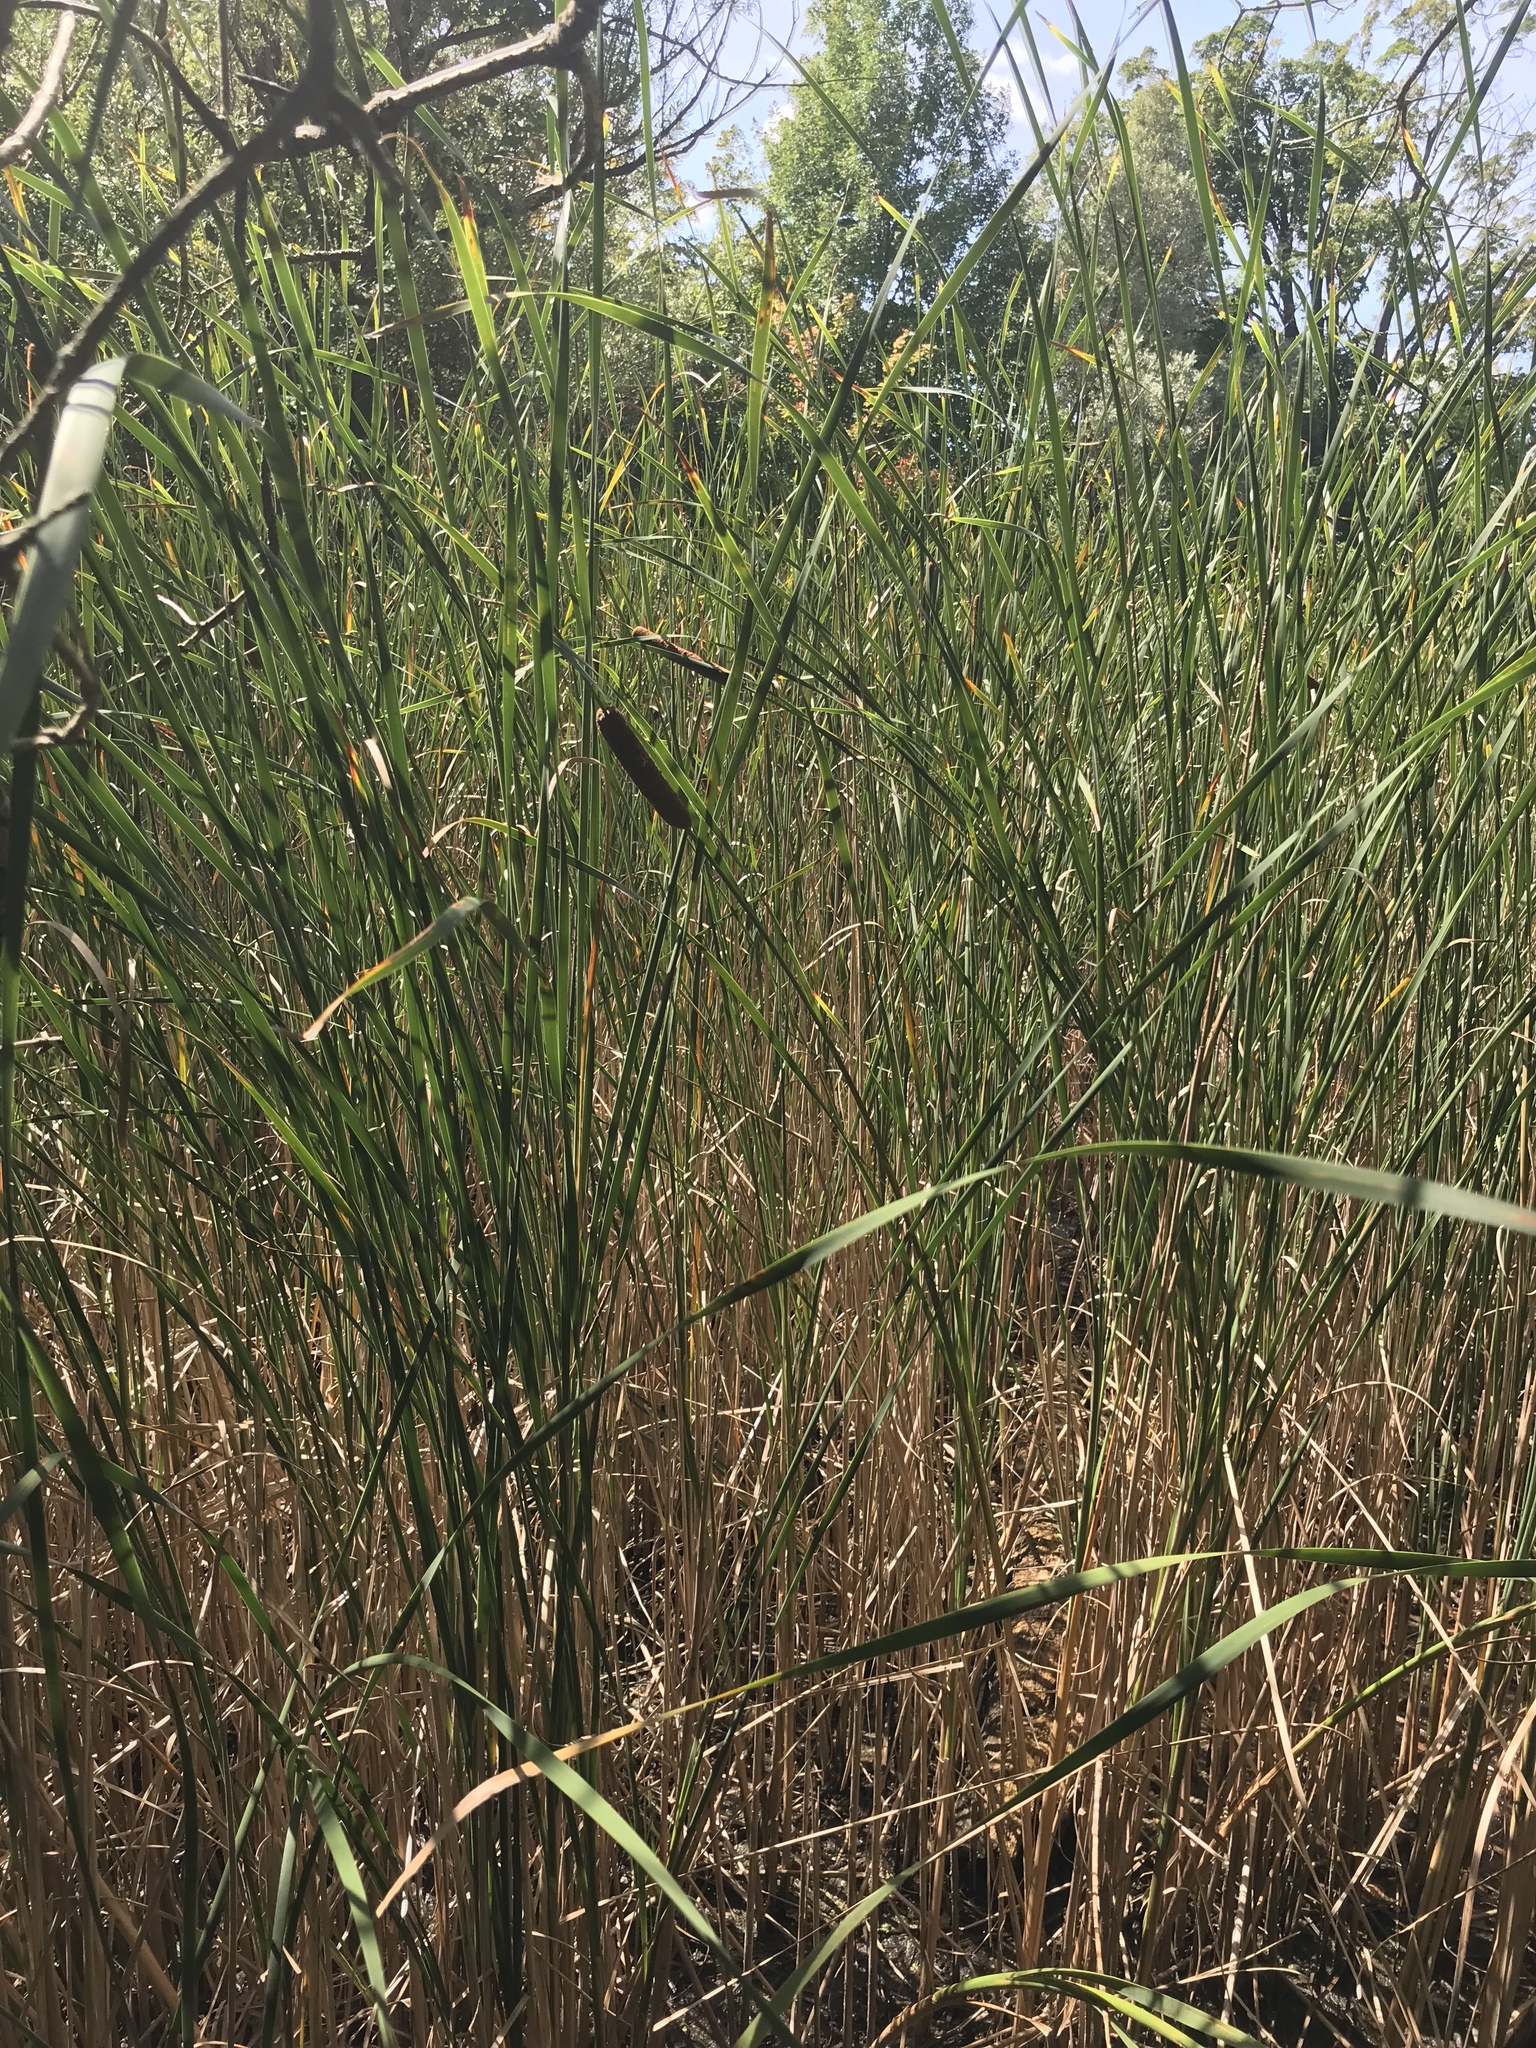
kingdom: Plantae
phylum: Tracheophyta
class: Liliopsida
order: Poales
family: Typhaceae
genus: Typha
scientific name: Typha angustifolia
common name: Lesser bulrush
